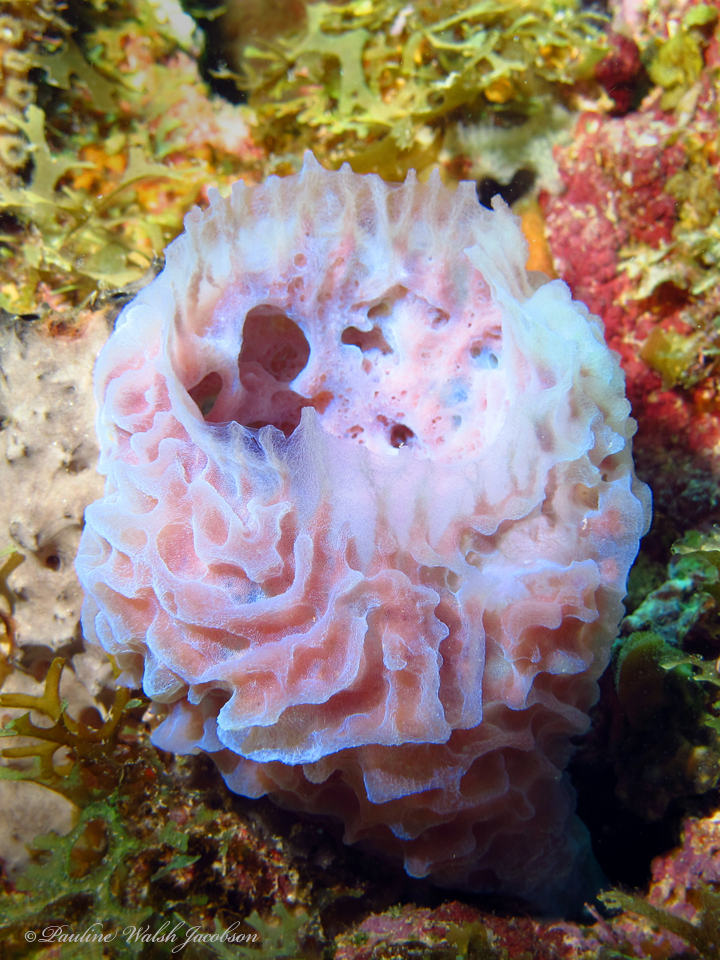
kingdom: Animalia
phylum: Porifera
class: Demospongiae
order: Haplosclerida
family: Callyspongiidae
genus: Callyspongia
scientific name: Callyspongia plicifera
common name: Azure vase sponge
